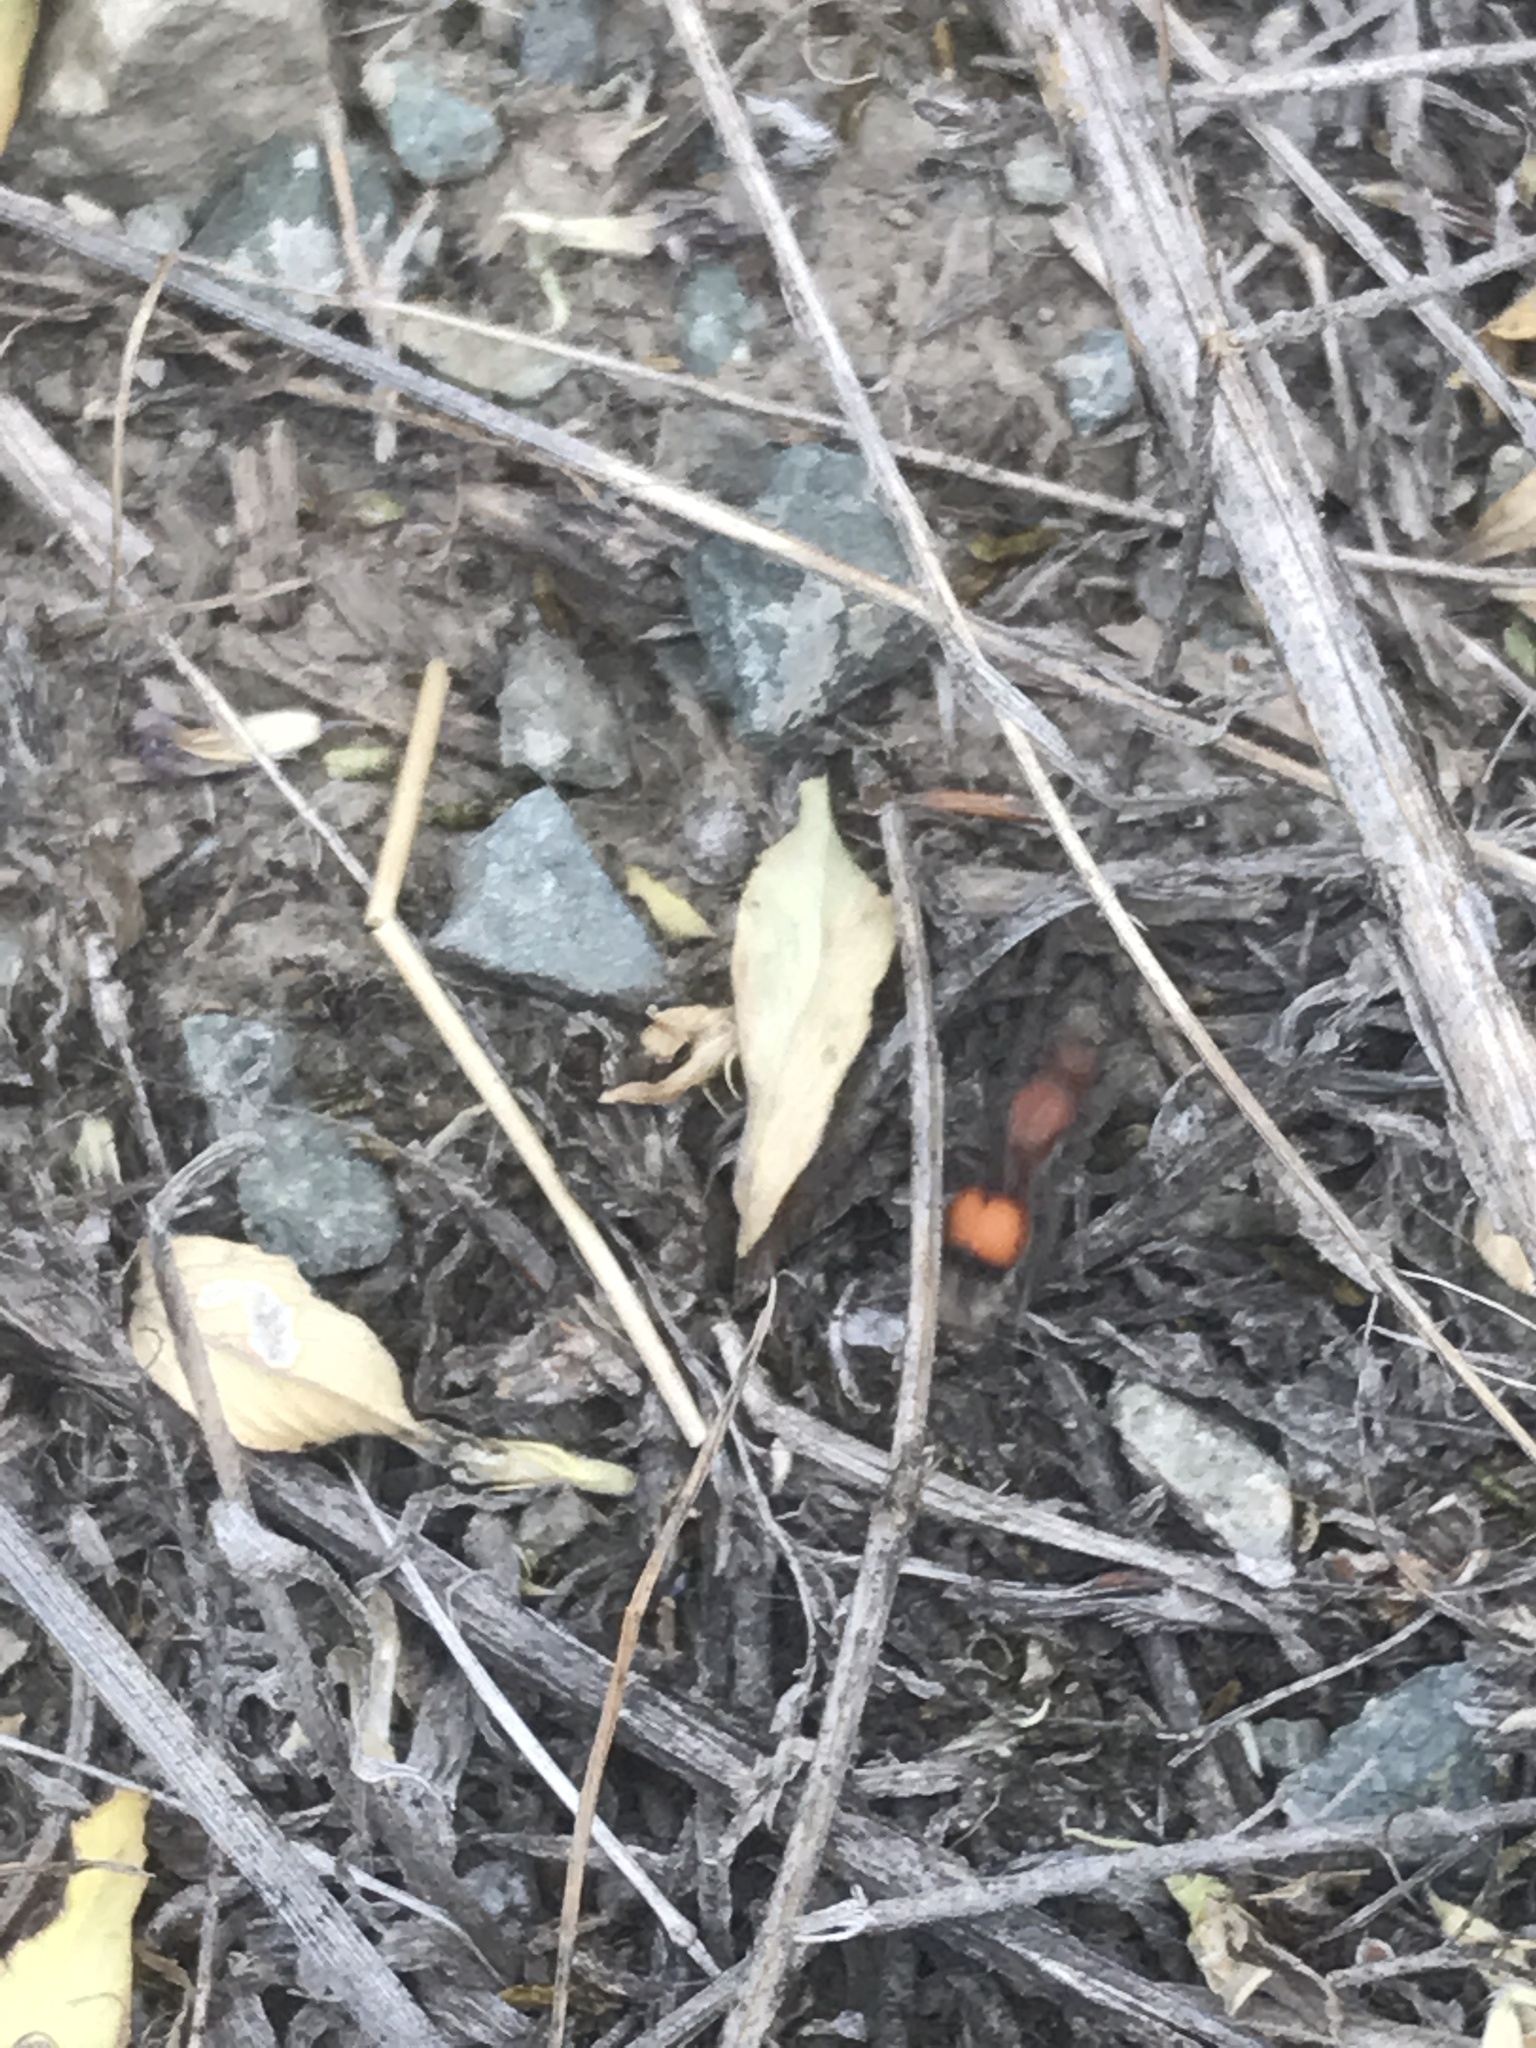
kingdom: Animalia
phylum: Arthropoda
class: Insecta
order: Hymenoptera
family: Mutillidae
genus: Dasymutilla
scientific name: Dasymutilla
